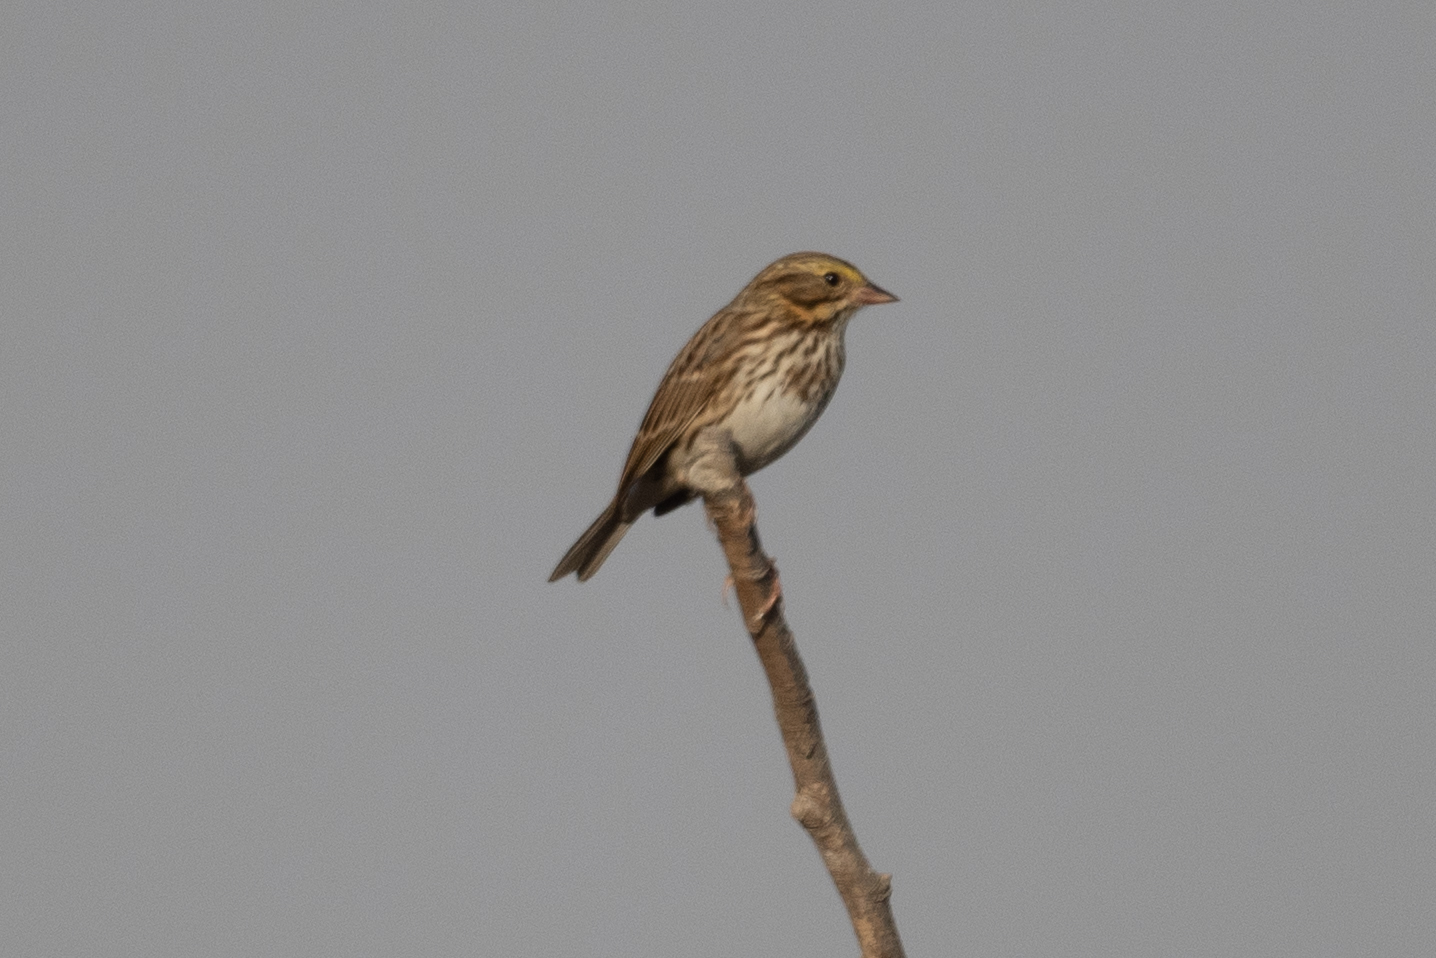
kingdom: Animalia
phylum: Chordata
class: Aves
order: Passeriformes
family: Passerellidae
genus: Passerculus
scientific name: Passerculus sandwichensis
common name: Savannah sparrow
